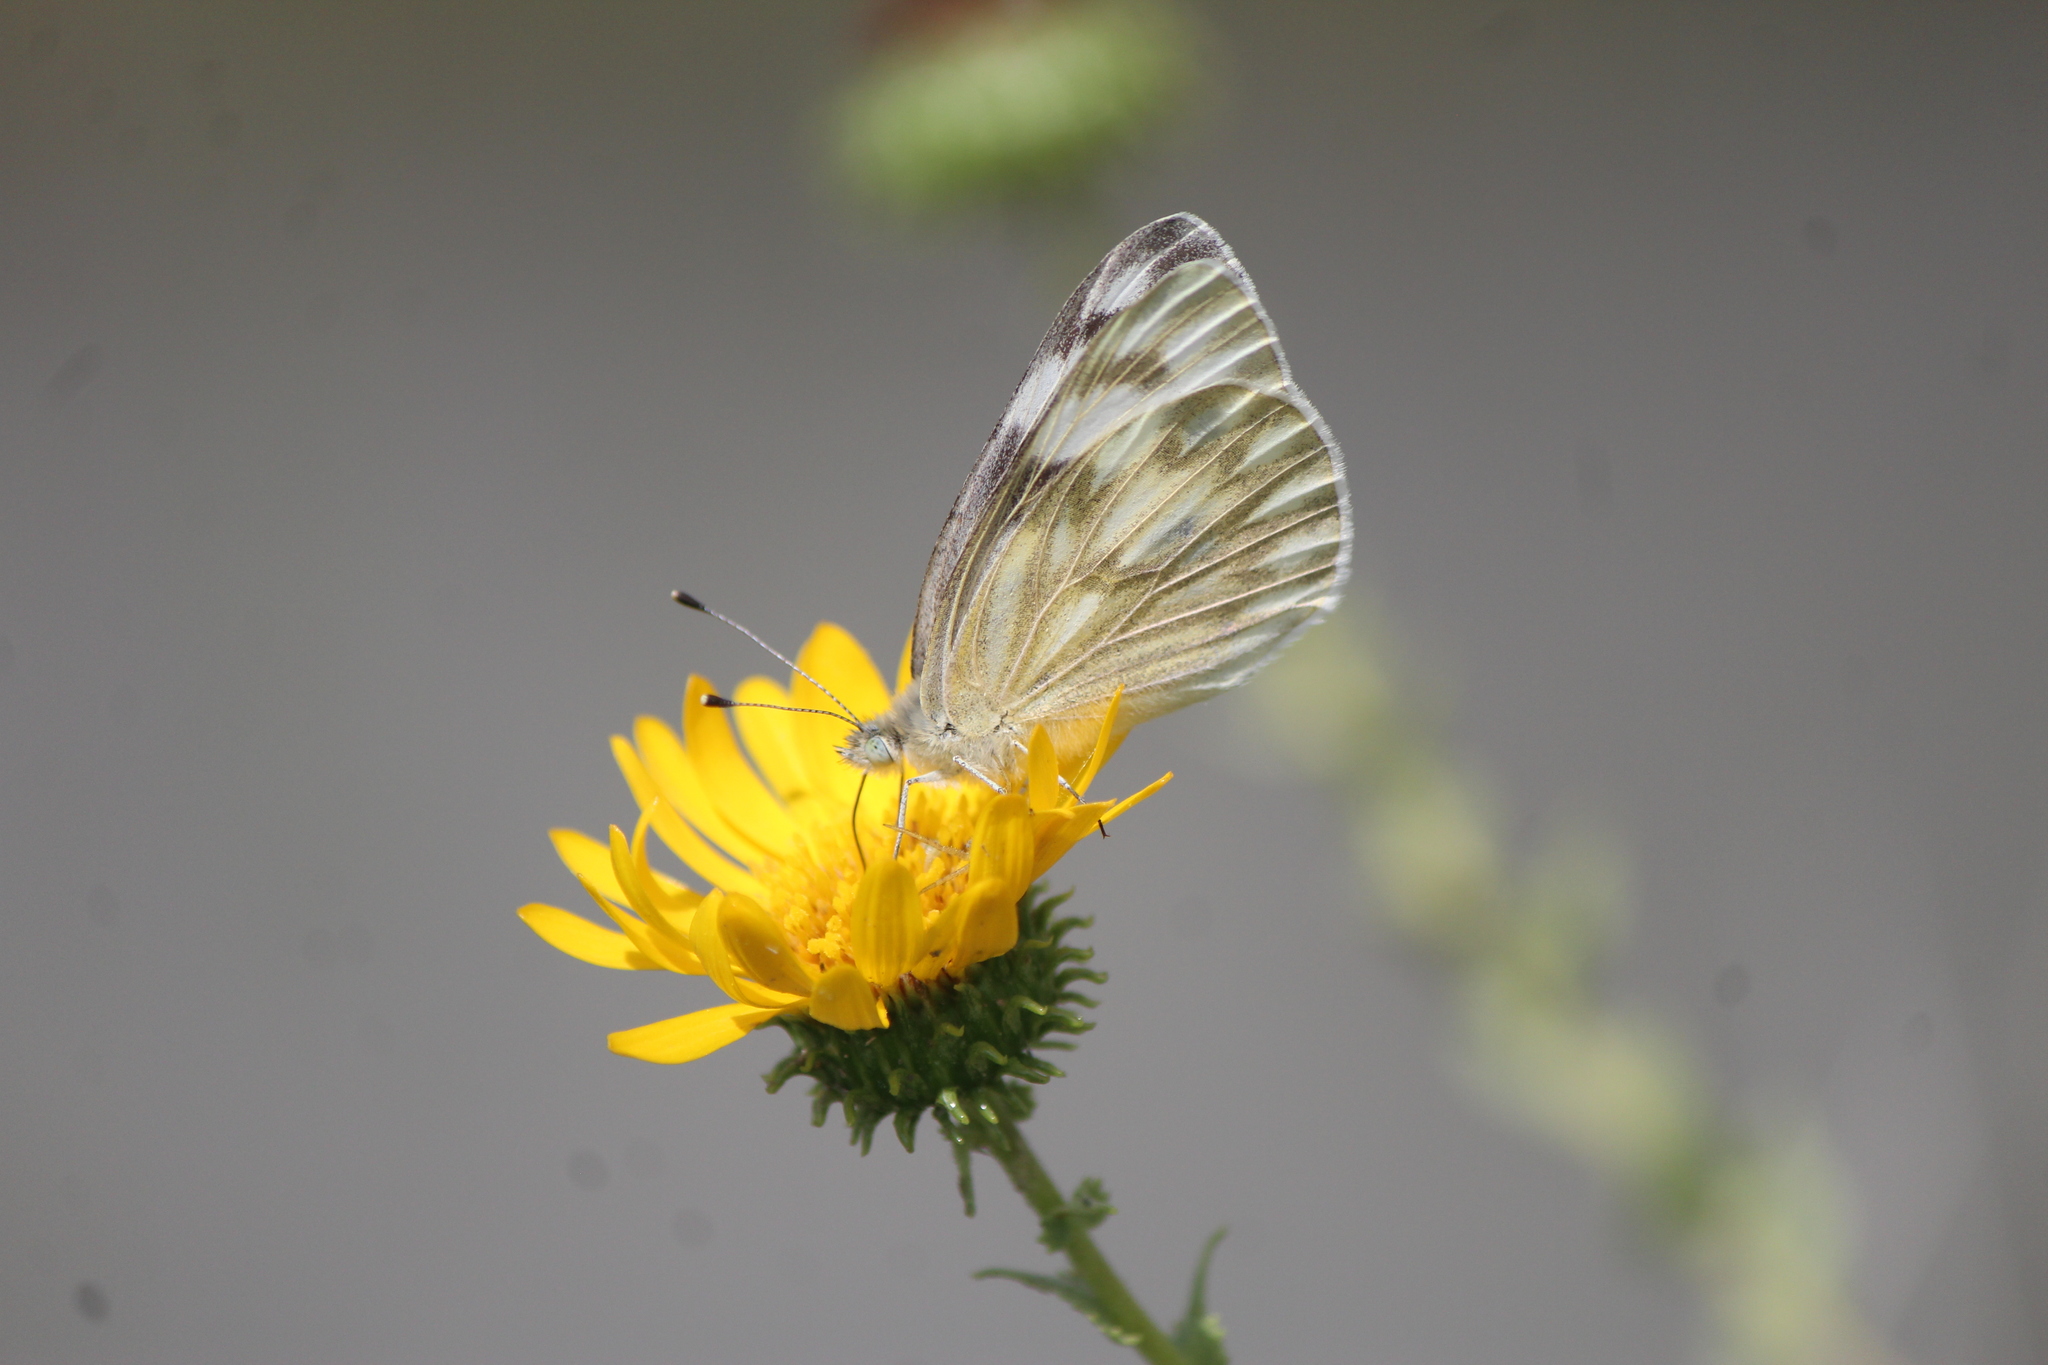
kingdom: Animalia
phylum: Arthropoda
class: Insecta
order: Lepidoptera
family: Pieridae
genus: Pontia
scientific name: Pontia protodice
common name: Checkered white
